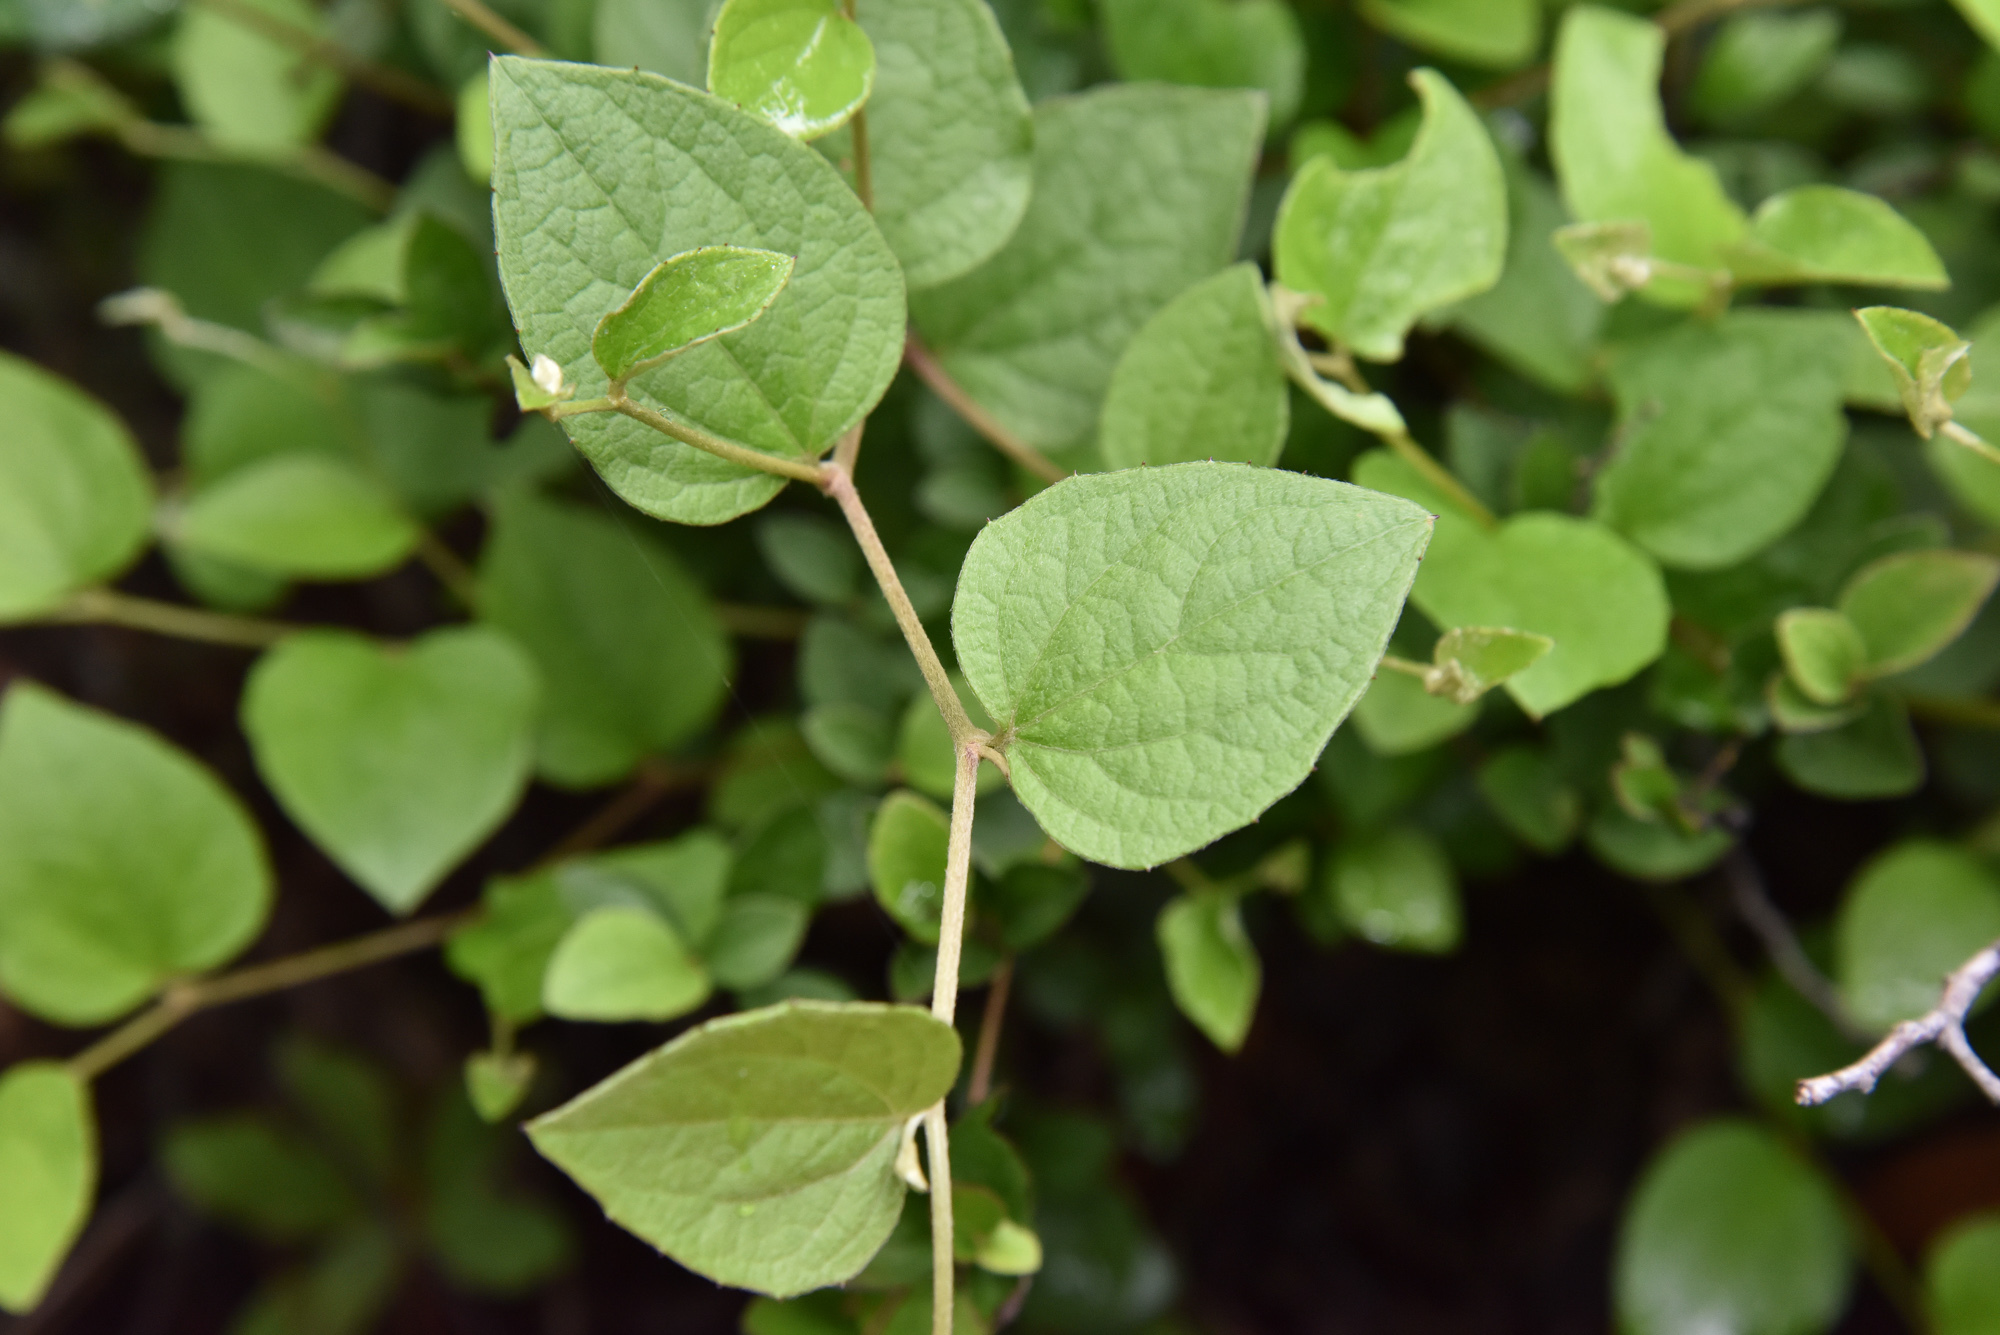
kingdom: Plantae
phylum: Tracheophyta
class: Magnoliopsida
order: Asterales
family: Asteraceae
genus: Pertya
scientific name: Pertya pubescens
